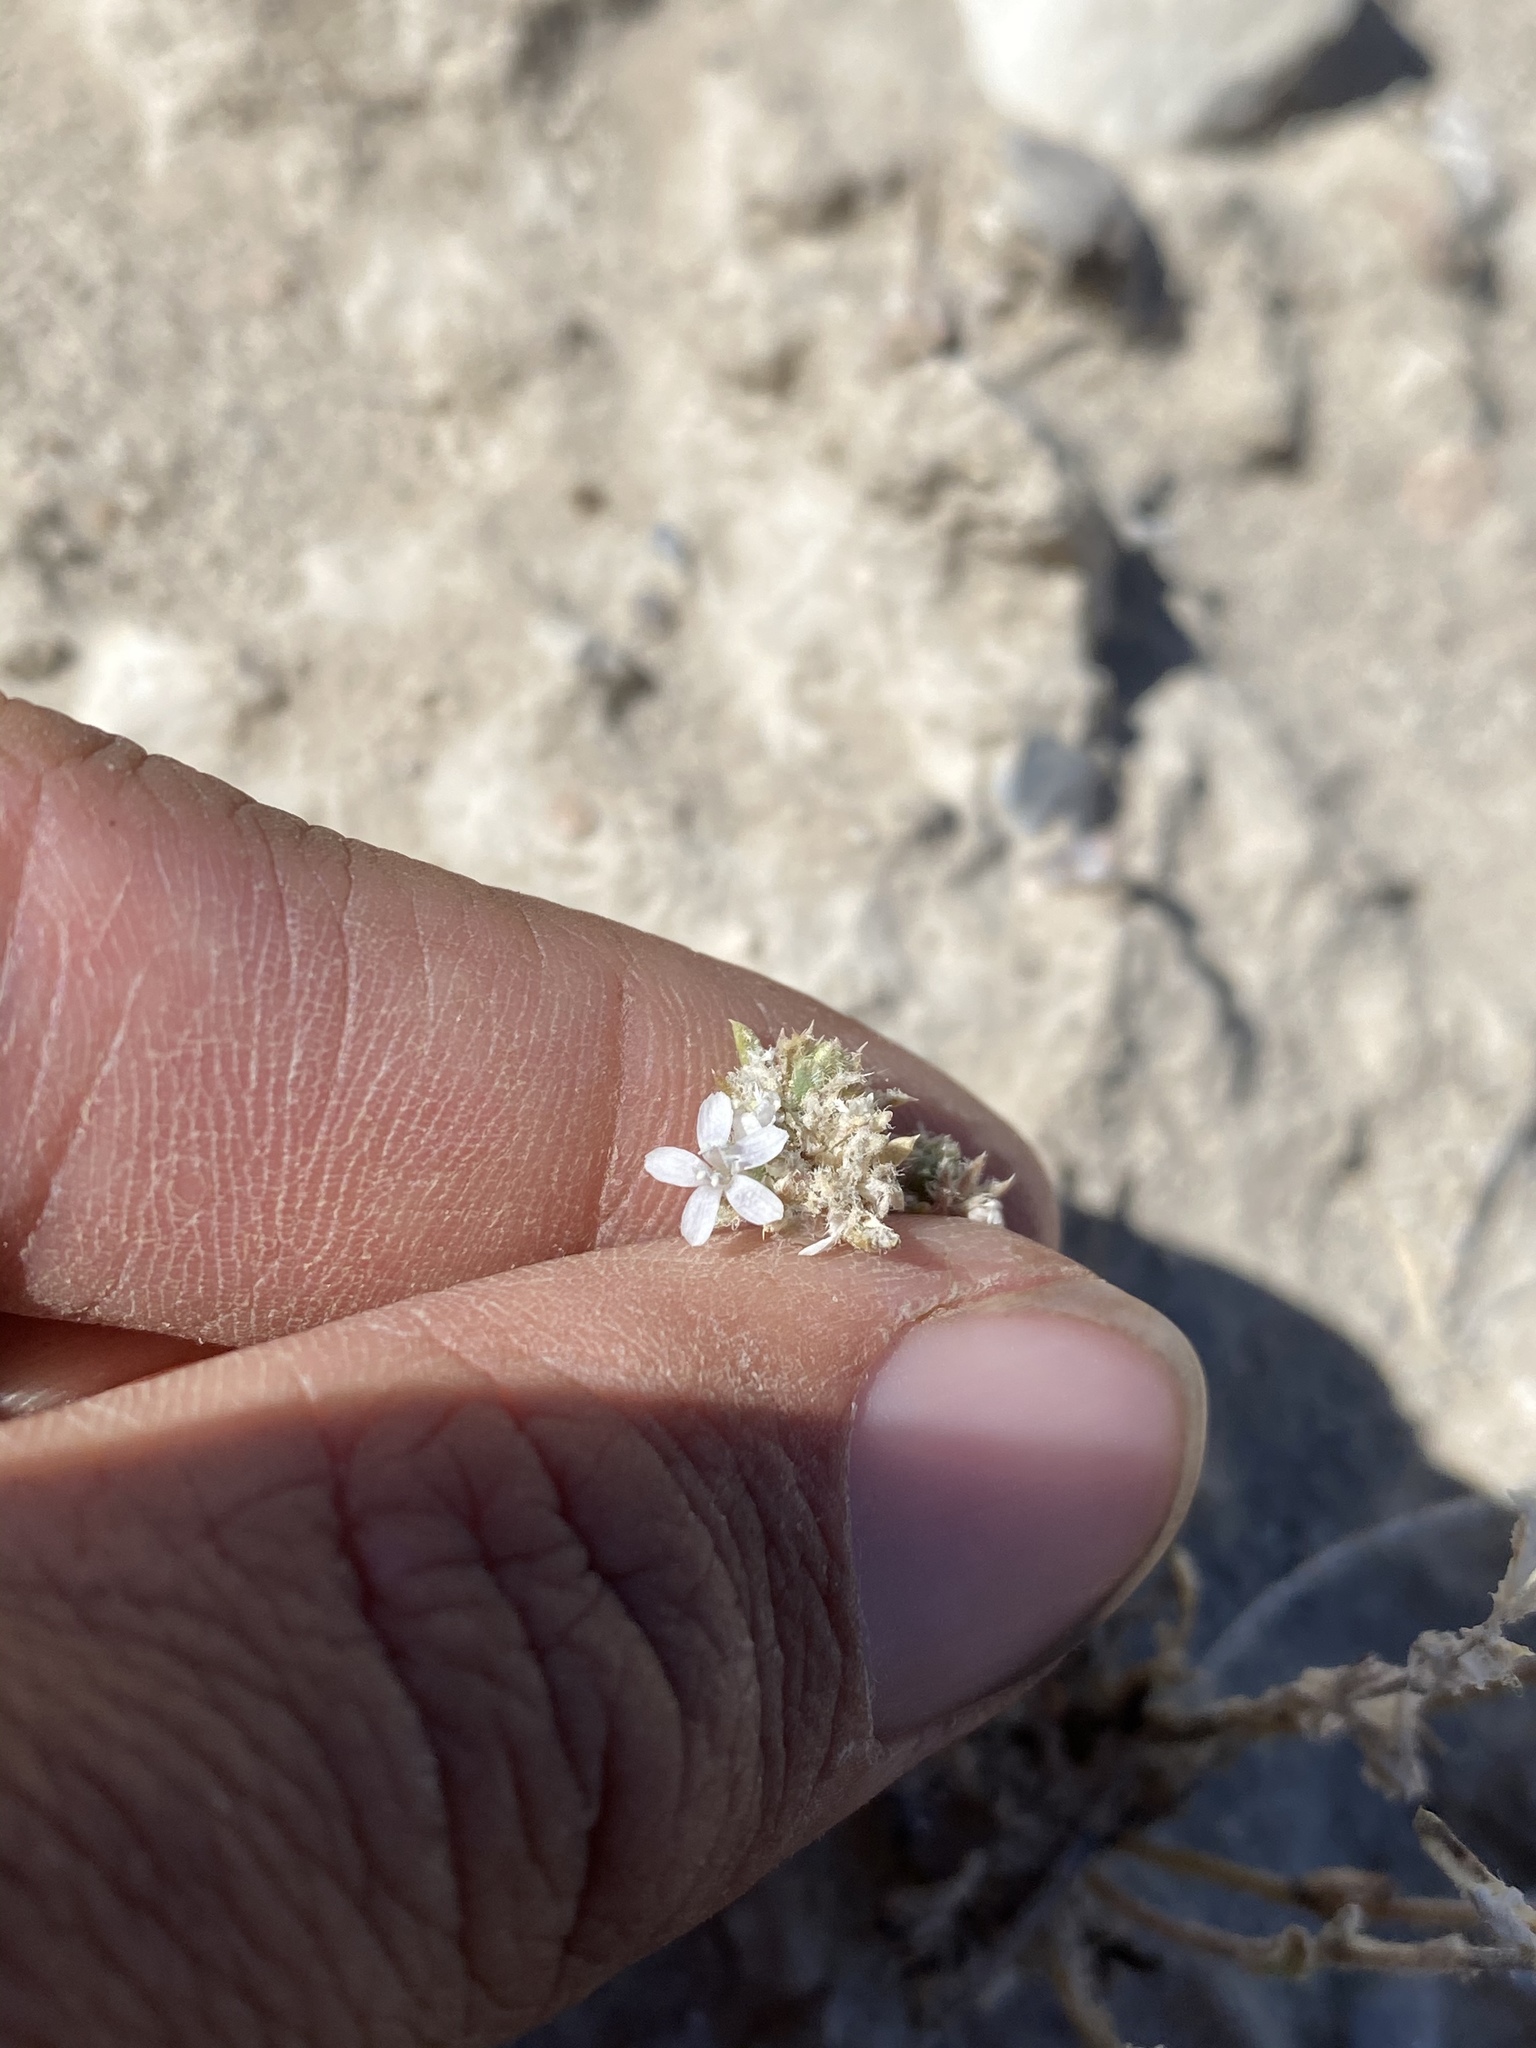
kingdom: Plantae
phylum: Tracheophyta
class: Magnoliopsida
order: Ericales
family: Polemoniaceae
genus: Ipomopsis
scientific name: Ipomopsis congesta
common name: Ball-head gilia
